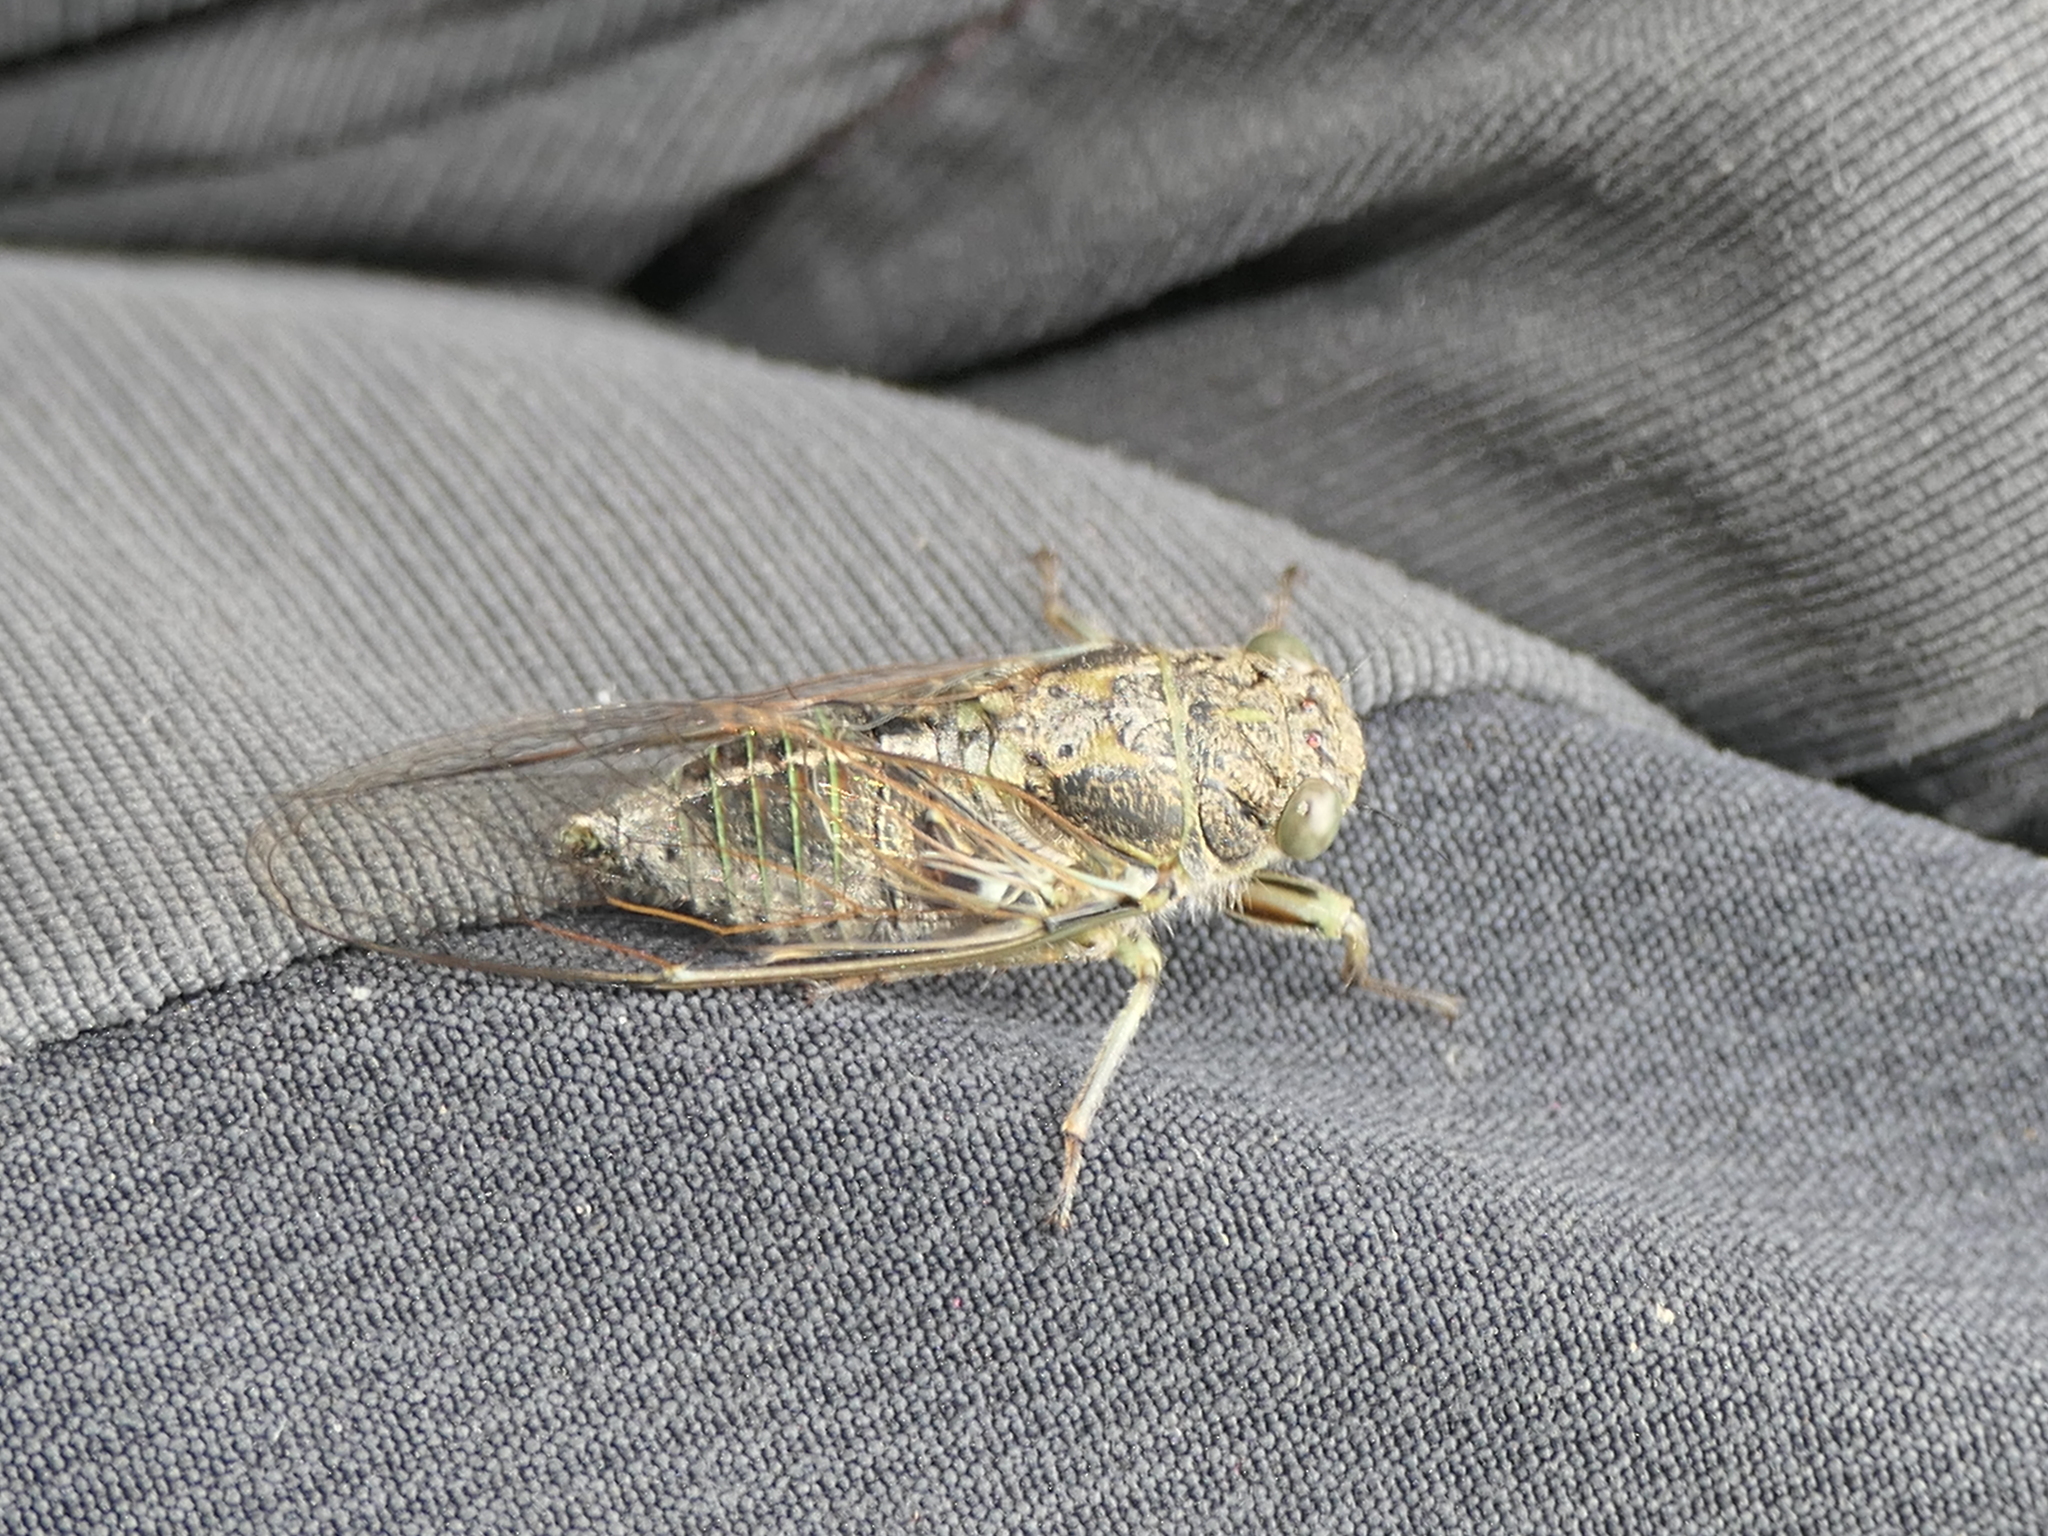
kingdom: Animalia
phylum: Arthropoda
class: Insecta
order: Hemiptera
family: Cicadidae
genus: Notopsalta
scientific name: Notopsalta sericea
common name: Clay bank cicada
